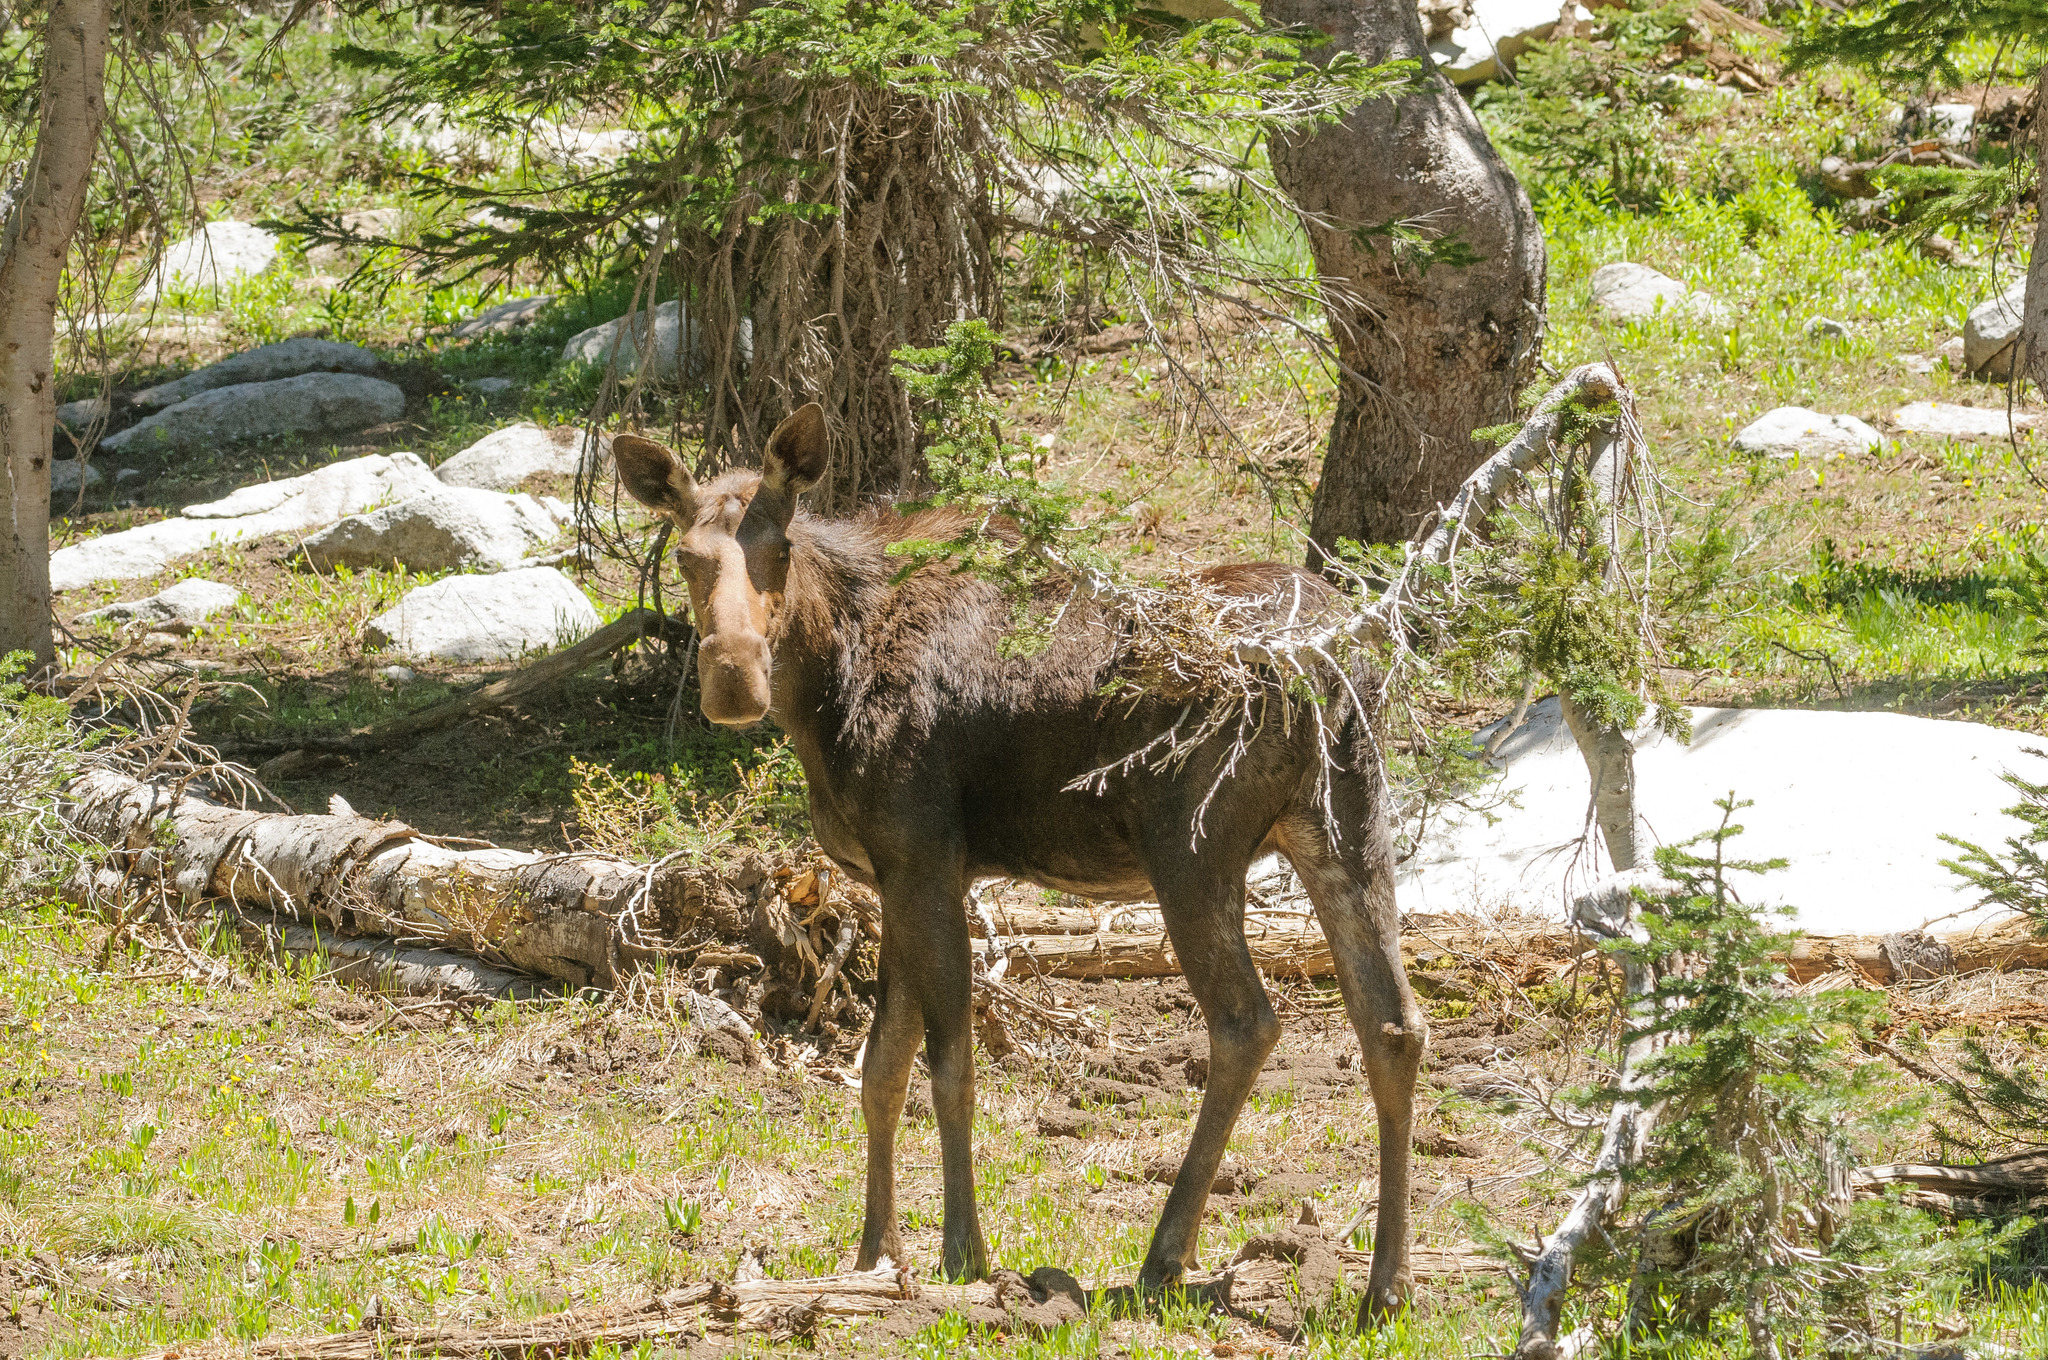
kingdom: Animalia
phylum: Chordata
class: Mammalia
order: Artiodactyla
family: Cervidae
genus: Alces
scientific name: Alces alces
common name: Moose
